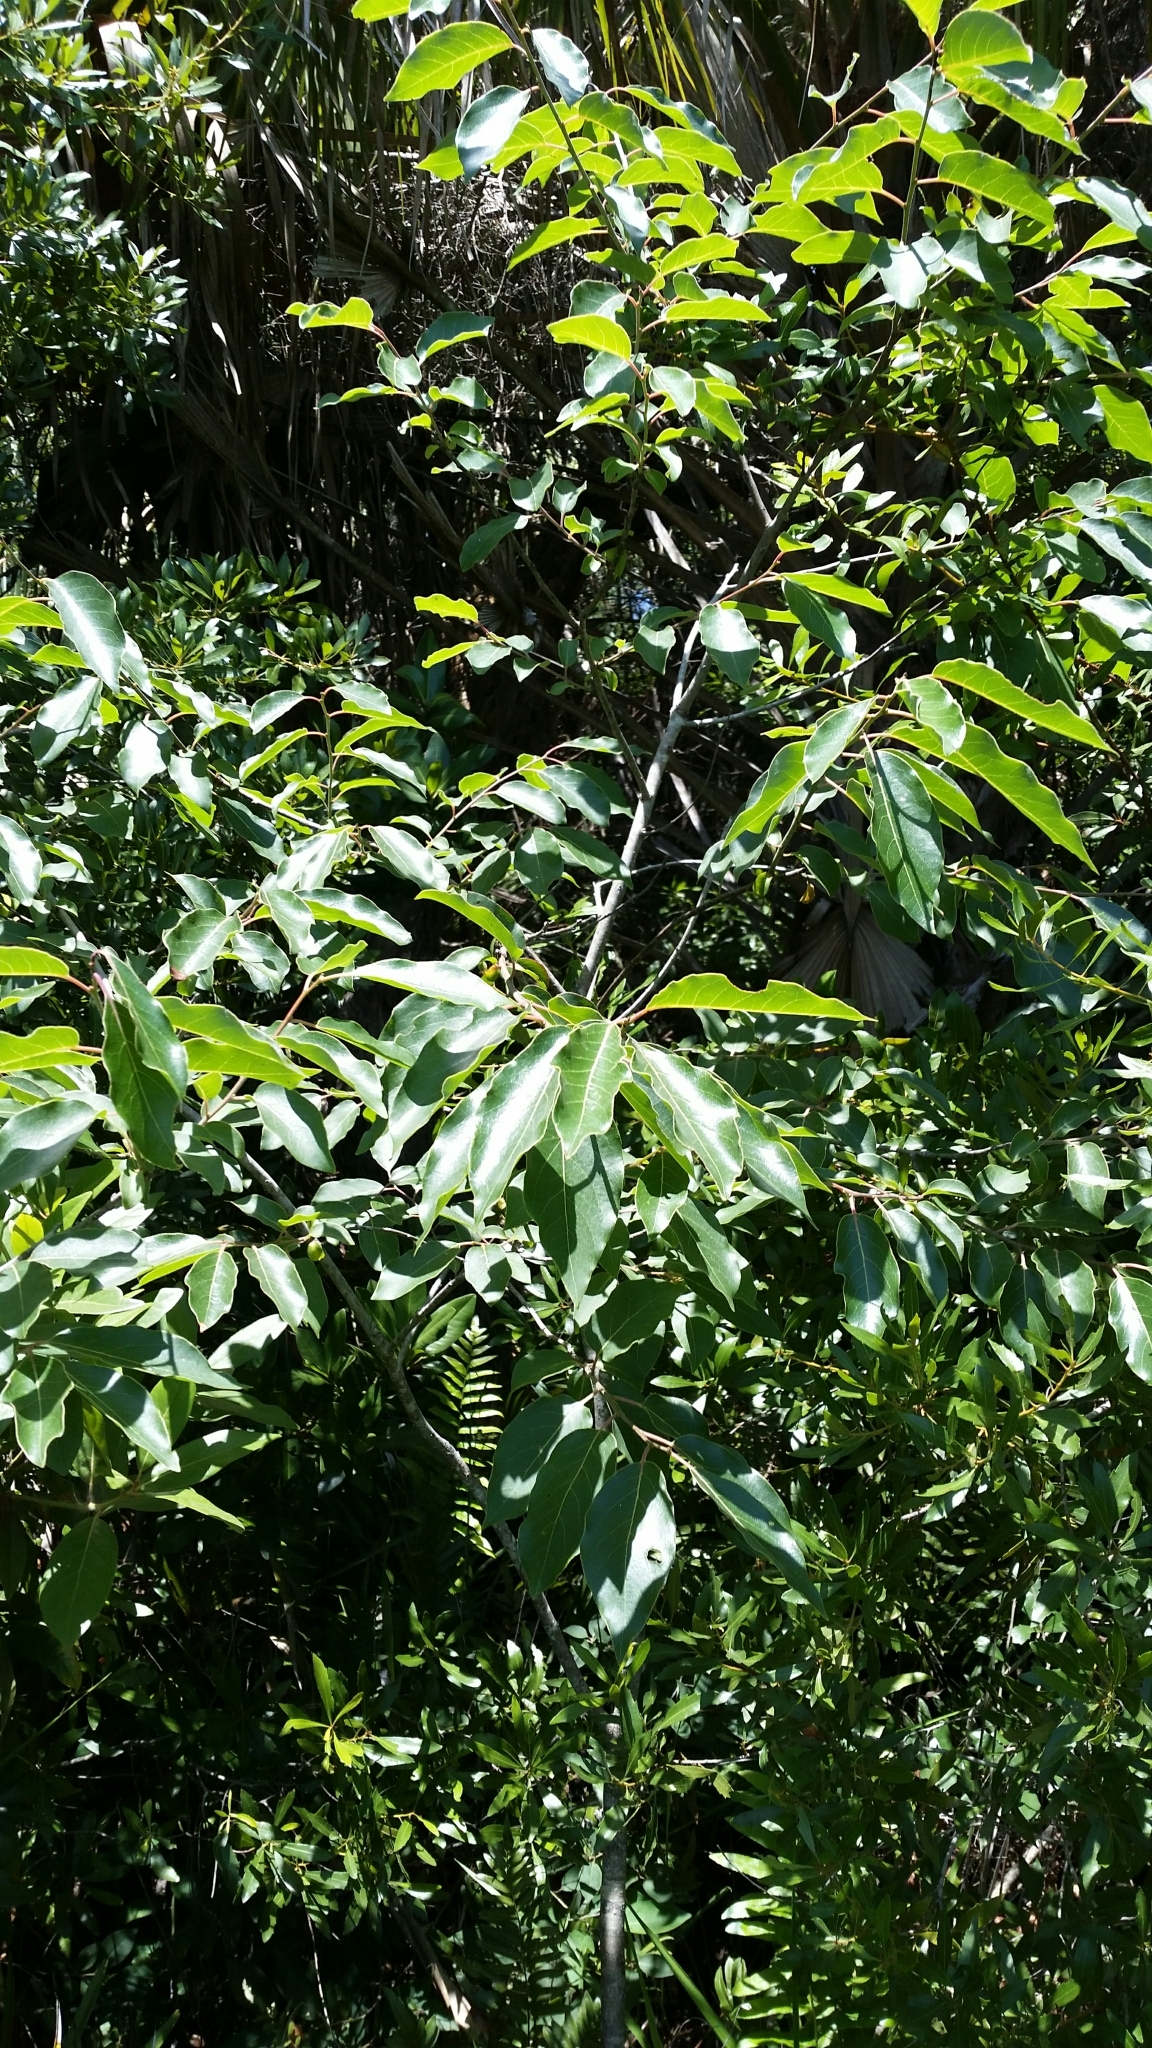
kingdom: Plantae
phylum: Tracheophyta
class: Magnoliopsida
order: Ericales
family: Ebenaceae
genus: Diospyros
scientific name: Diospyros virginiana
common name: Persimmon
